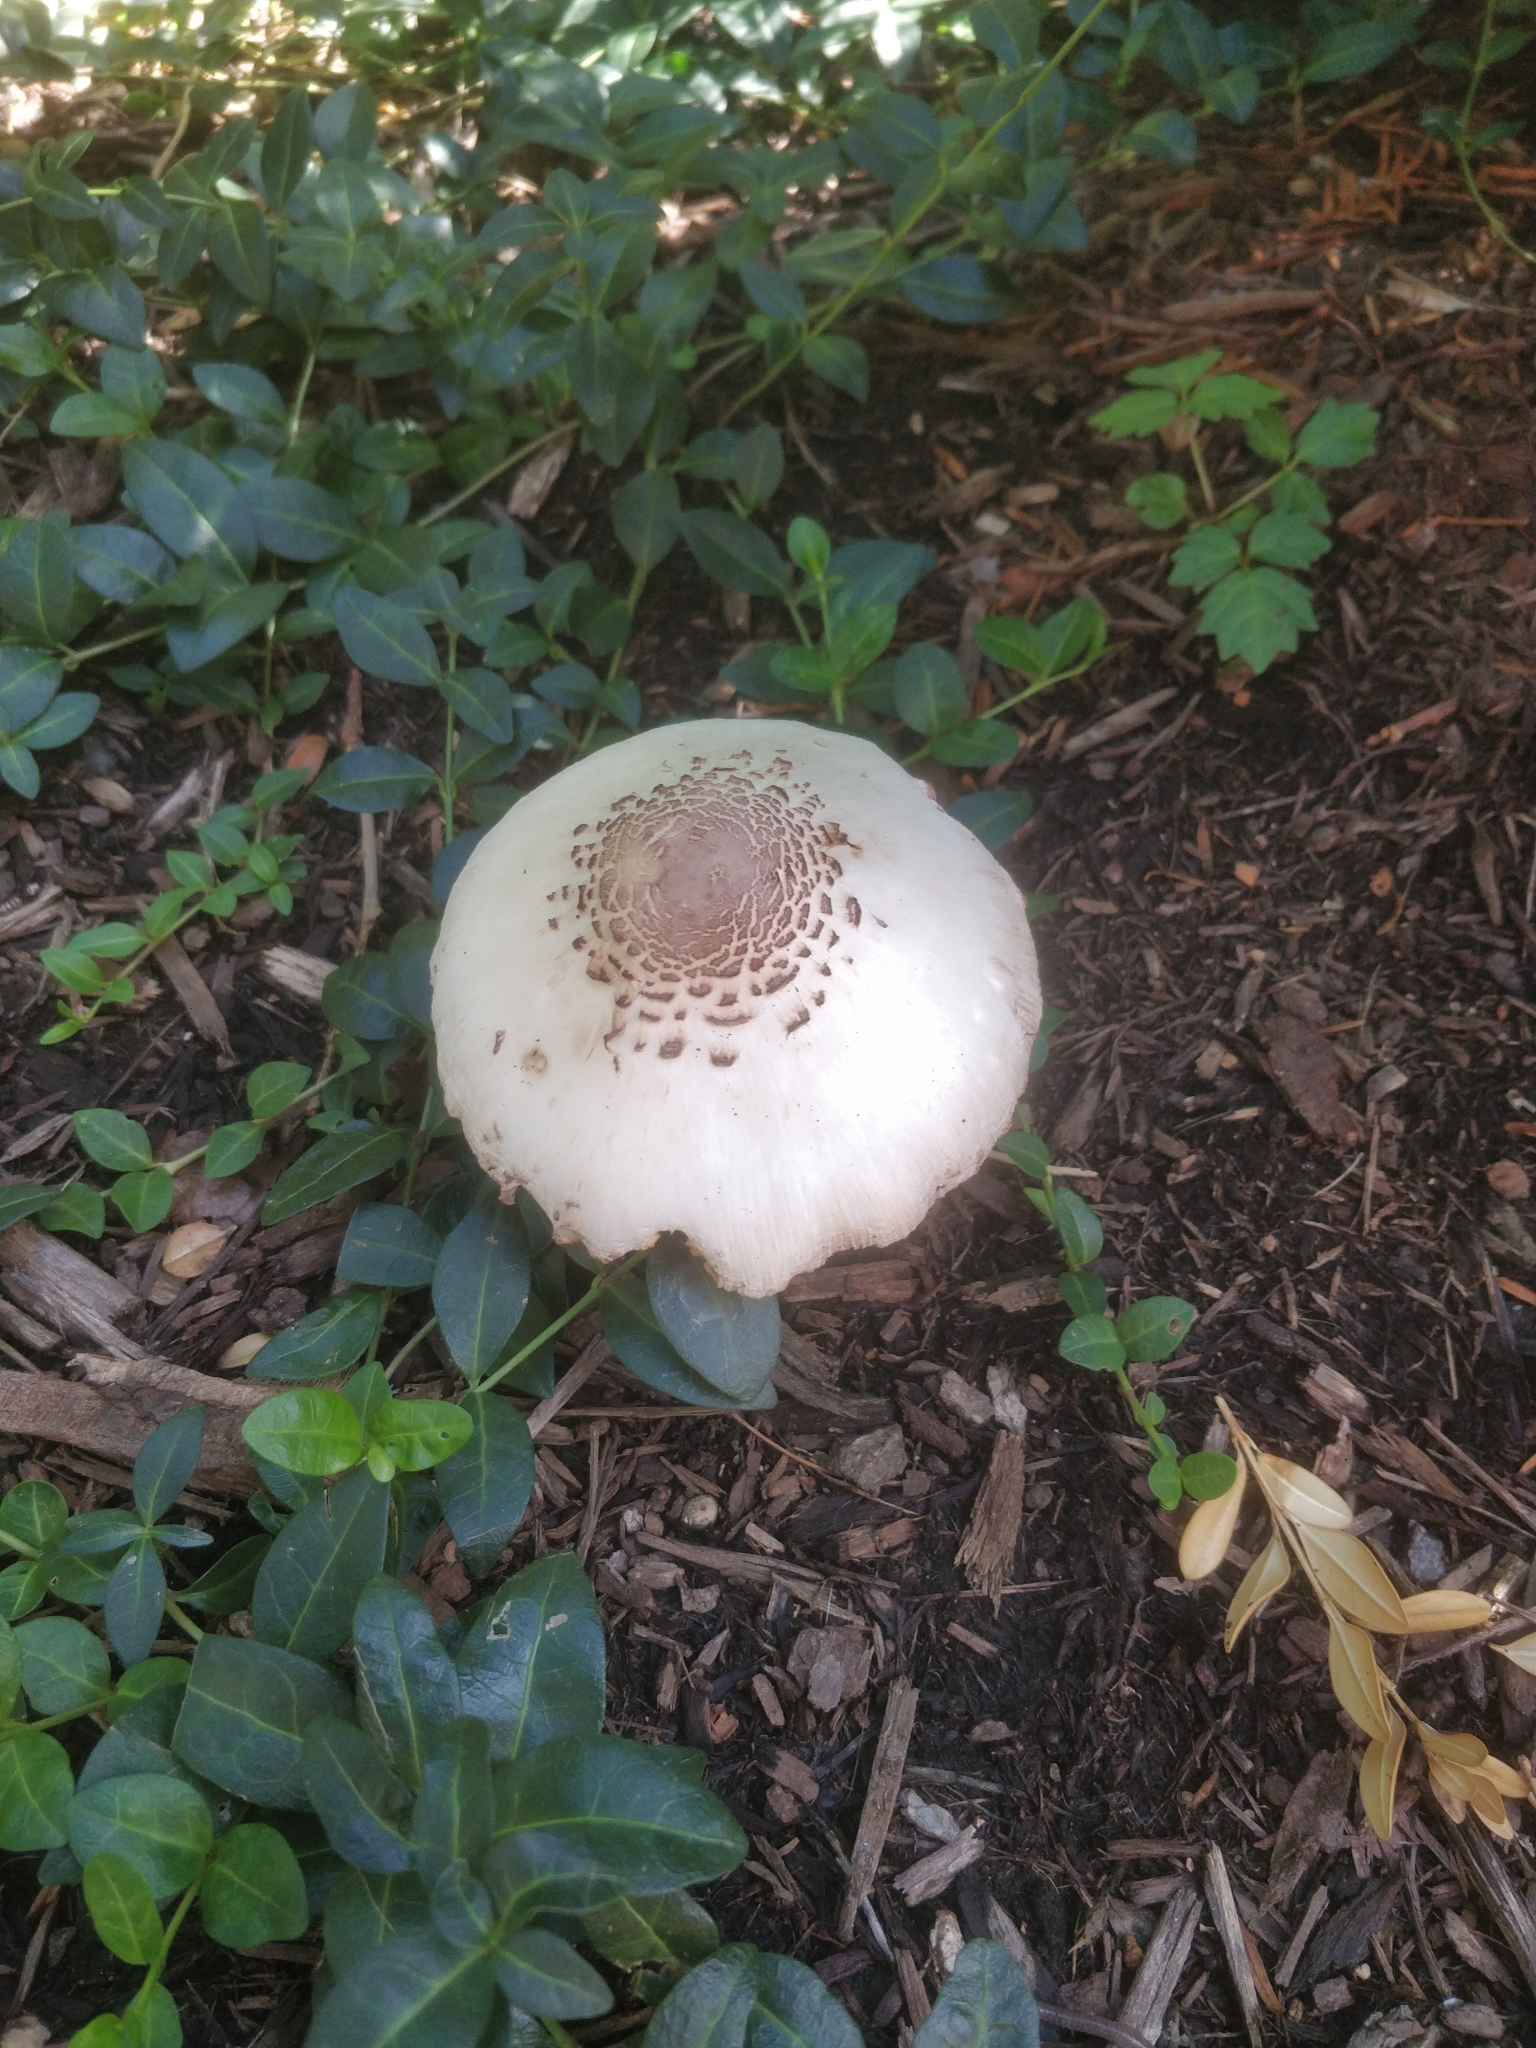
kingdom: Fungi
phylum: Basidiomycota
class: Agaricomycetes
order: Agaricales
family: Agaricaceae
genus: Leucoagaricus
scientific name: Leucoagaricus americanus
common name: Reddening lepiota
